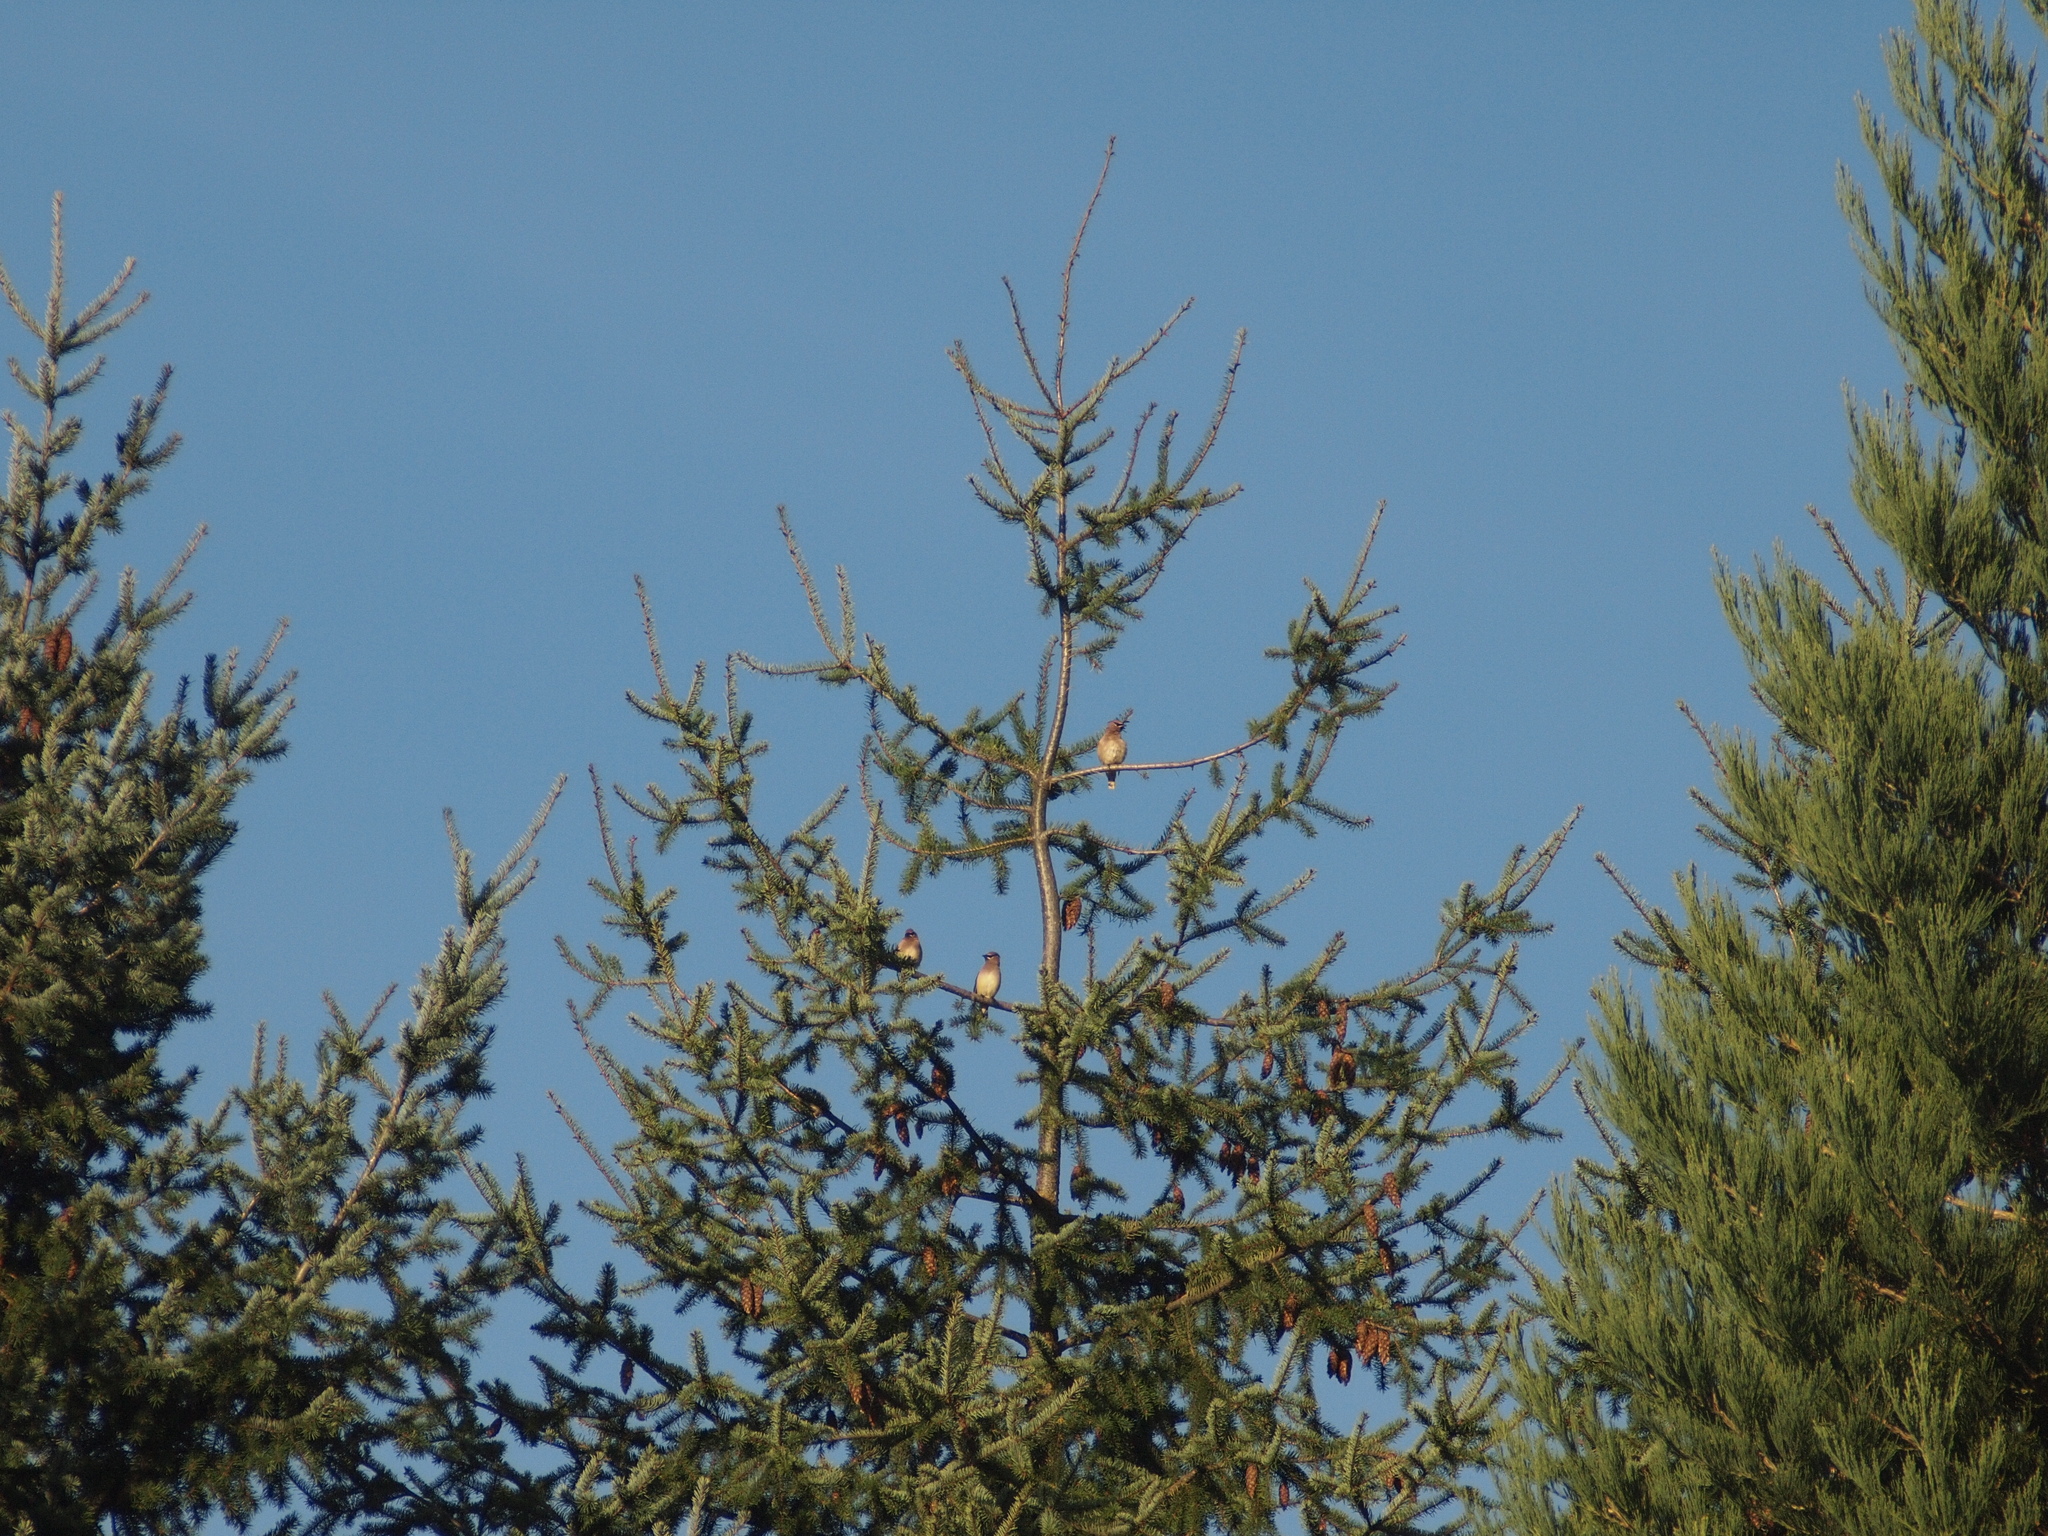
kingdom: Animalia
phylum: Chordata
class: Aves
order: Passeriformes
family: Bombycillidae
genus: Bombycilla
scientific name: Bombycilla cedrorum
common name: Cedar waxwing
